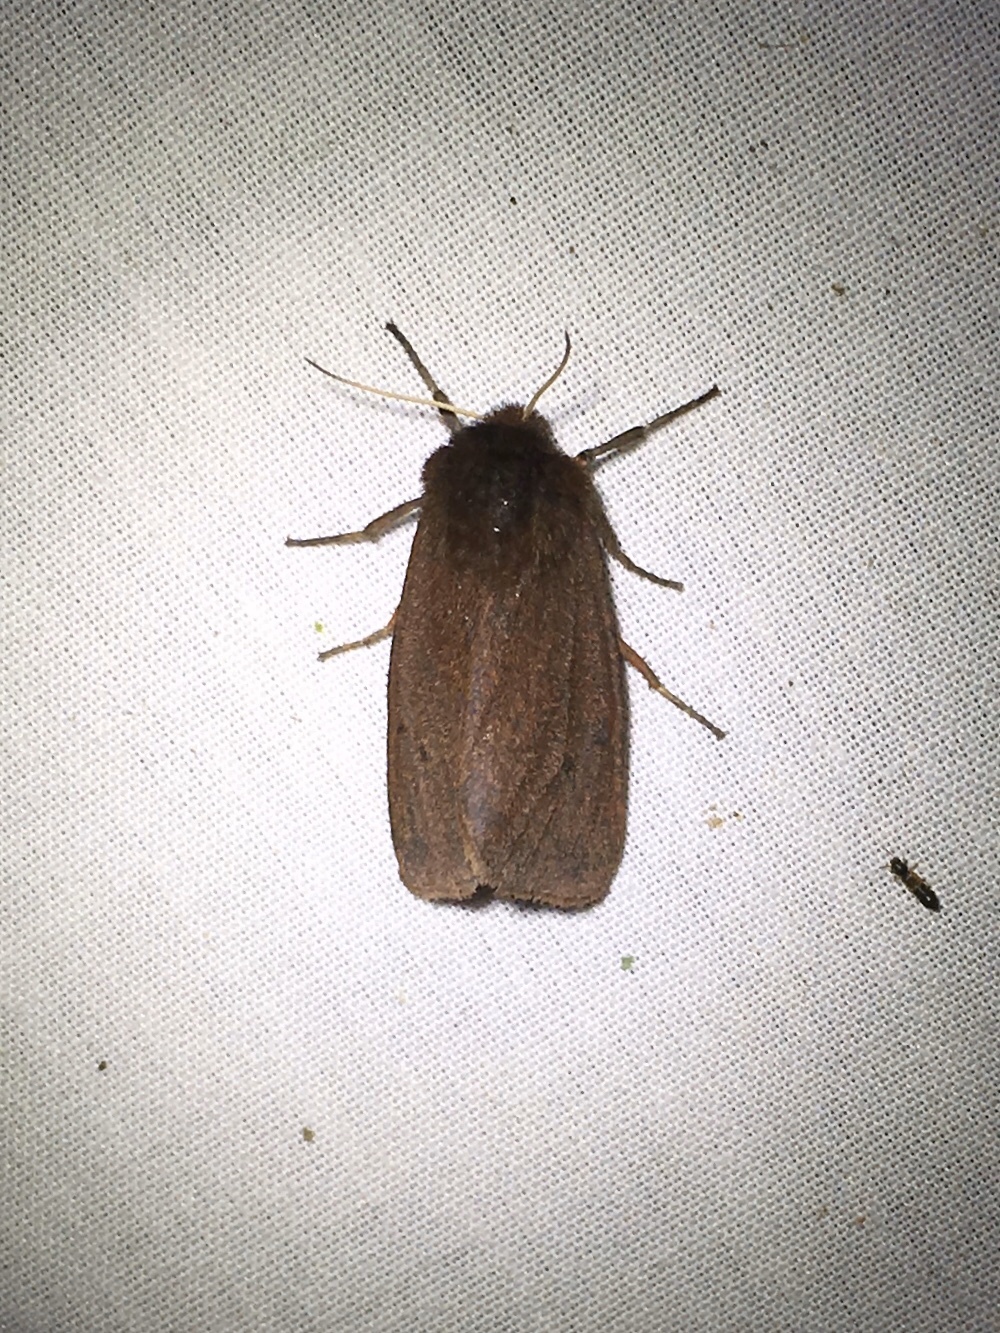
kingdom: Animalia
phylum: Arthropoda
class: Insecta
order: Lepidoptera
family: Erebidae
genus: Phragmatobia
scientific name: Phragmatobia fuliginosa
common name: Ruby tiger
